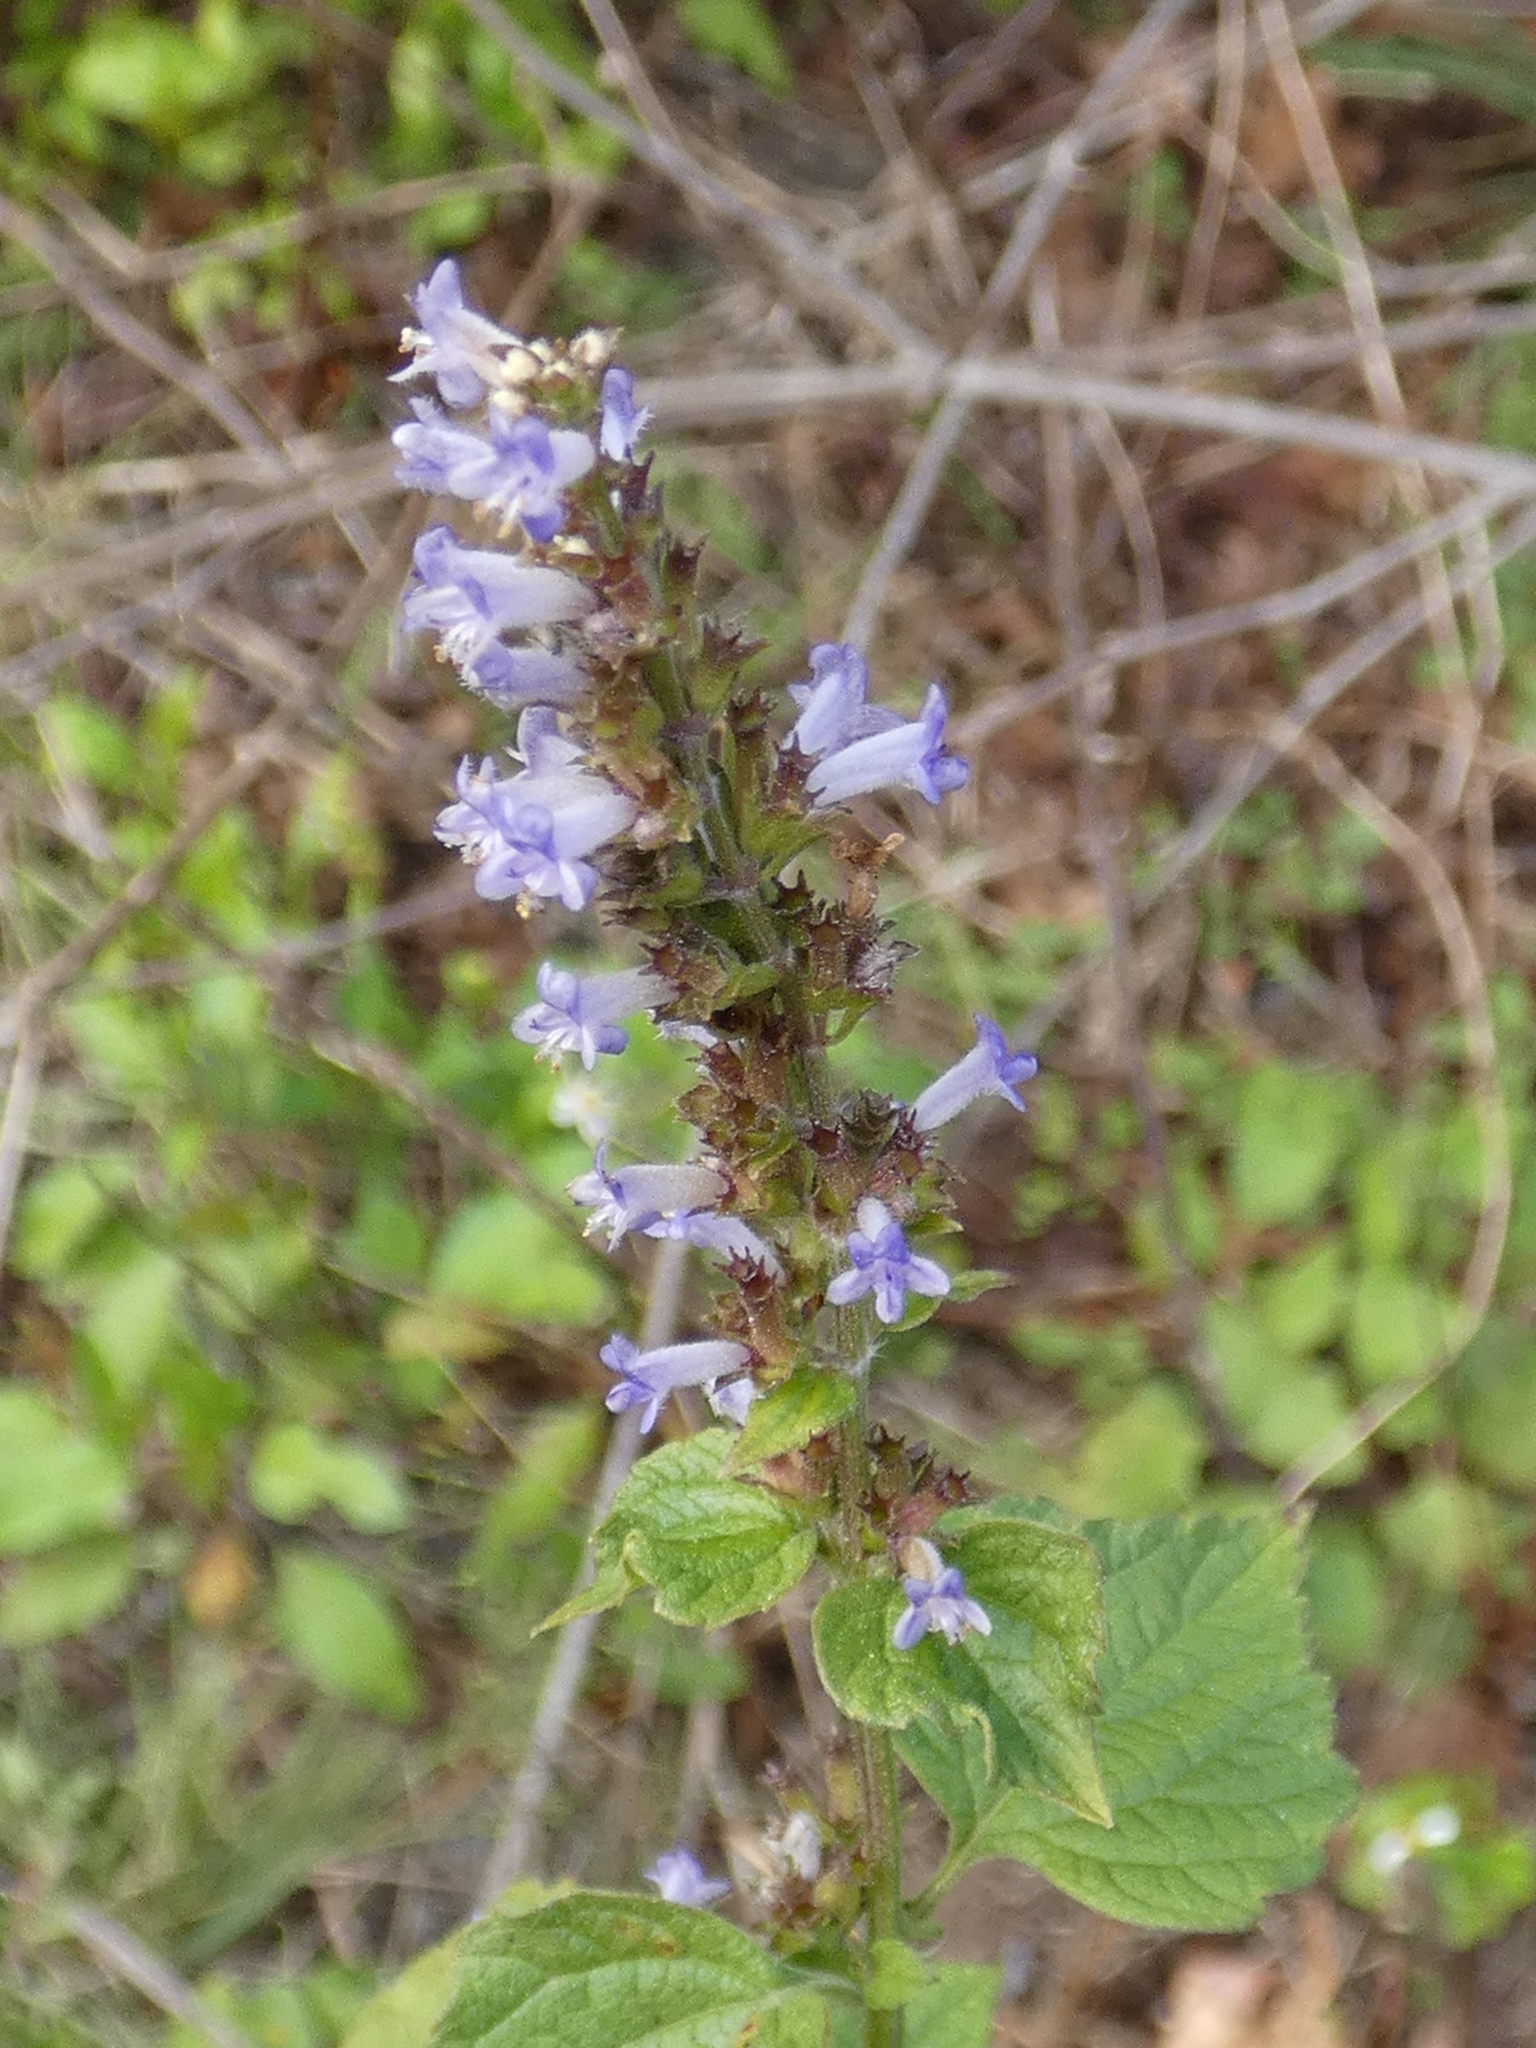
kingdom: Plantae
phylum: Tracheophyta
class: Magnoliopsida
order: Lamiales
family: Lamiaceae
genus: Cantinoa
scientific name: Cantinoa mutabilis
